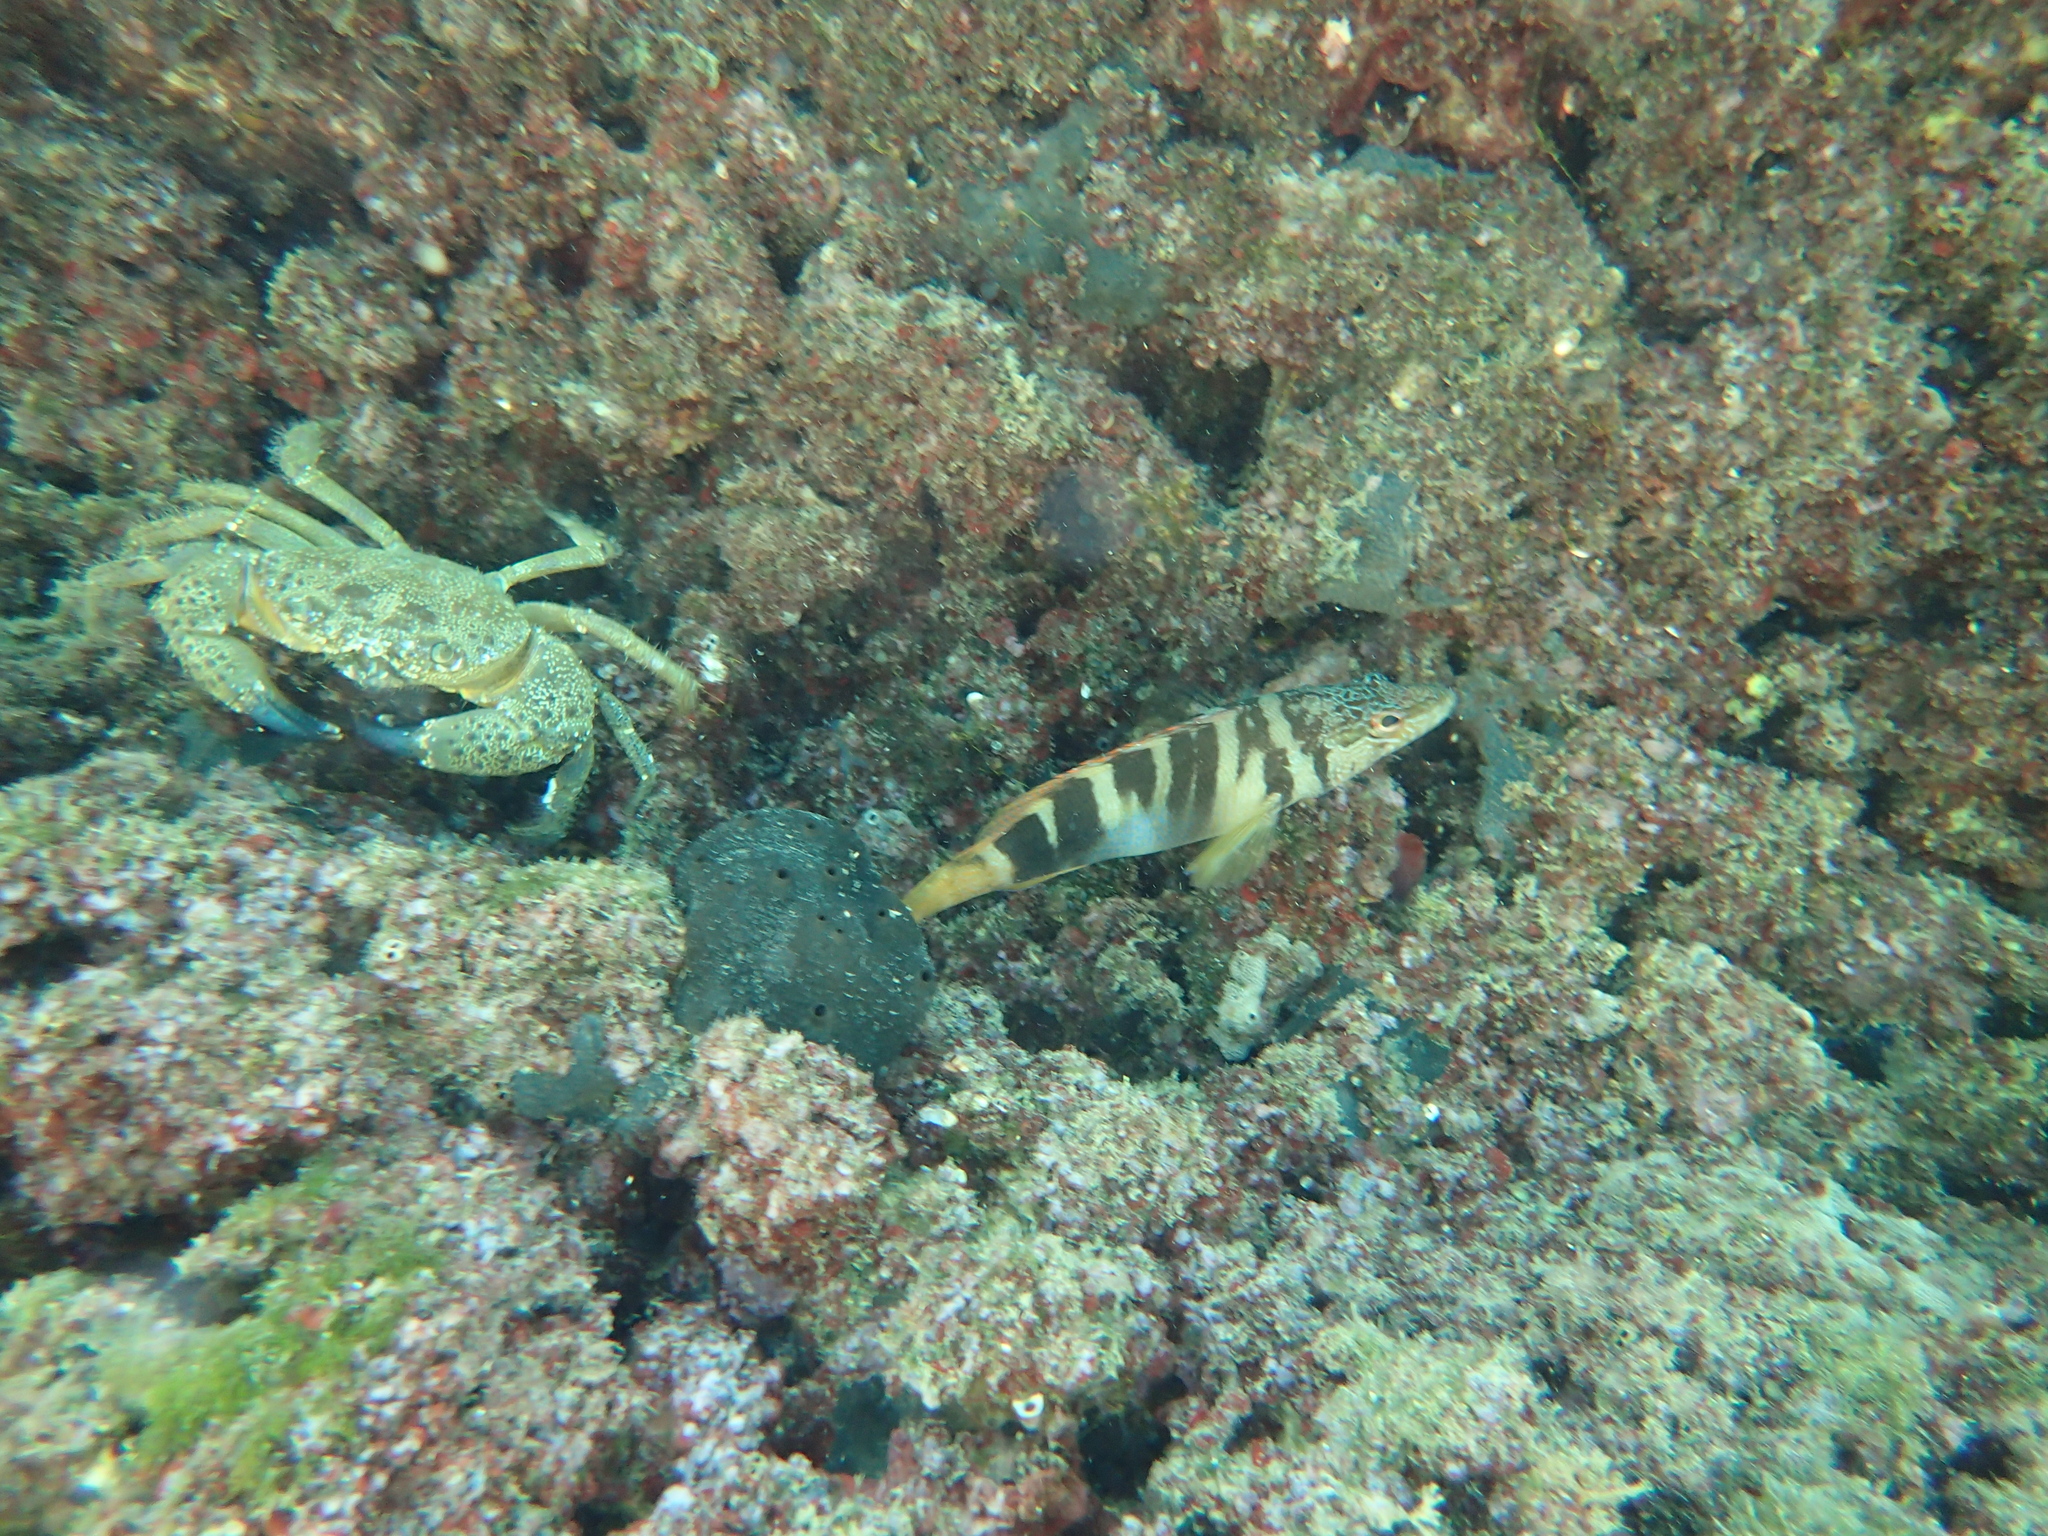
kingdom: Animalia
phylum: Chordata
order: Perciformes
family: Serranidae
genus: Serranus
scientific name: Serranus scriba
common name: Painted comber
